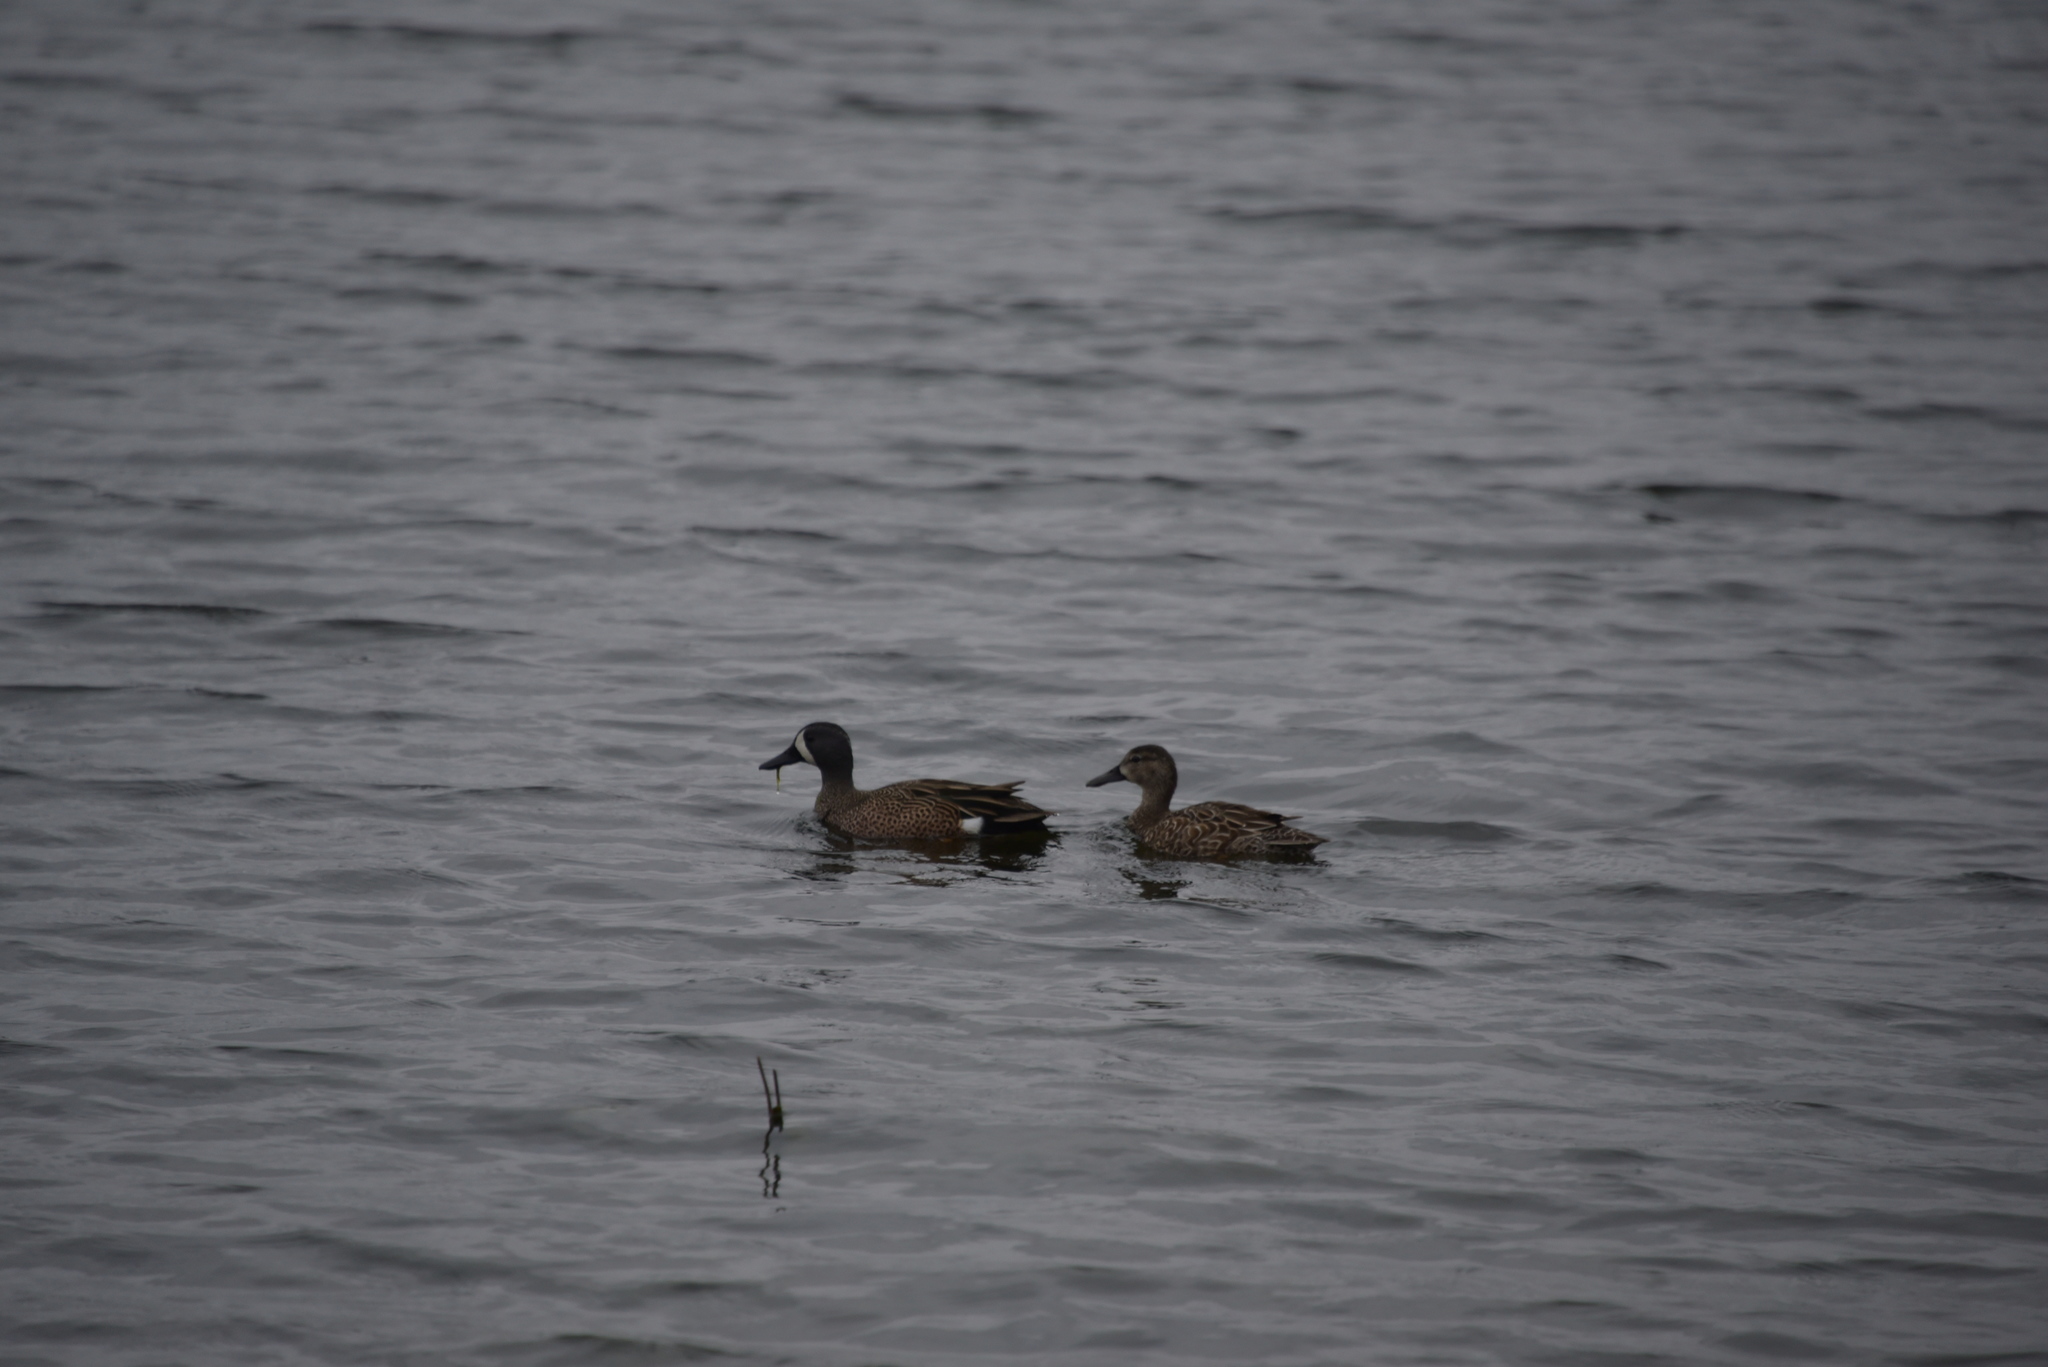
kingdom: Animalia
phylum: Chordata
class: Aves
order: Anseriformes
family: Anatidae
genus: Spatula
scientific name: Spatula discors
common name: Blue-winged teal
